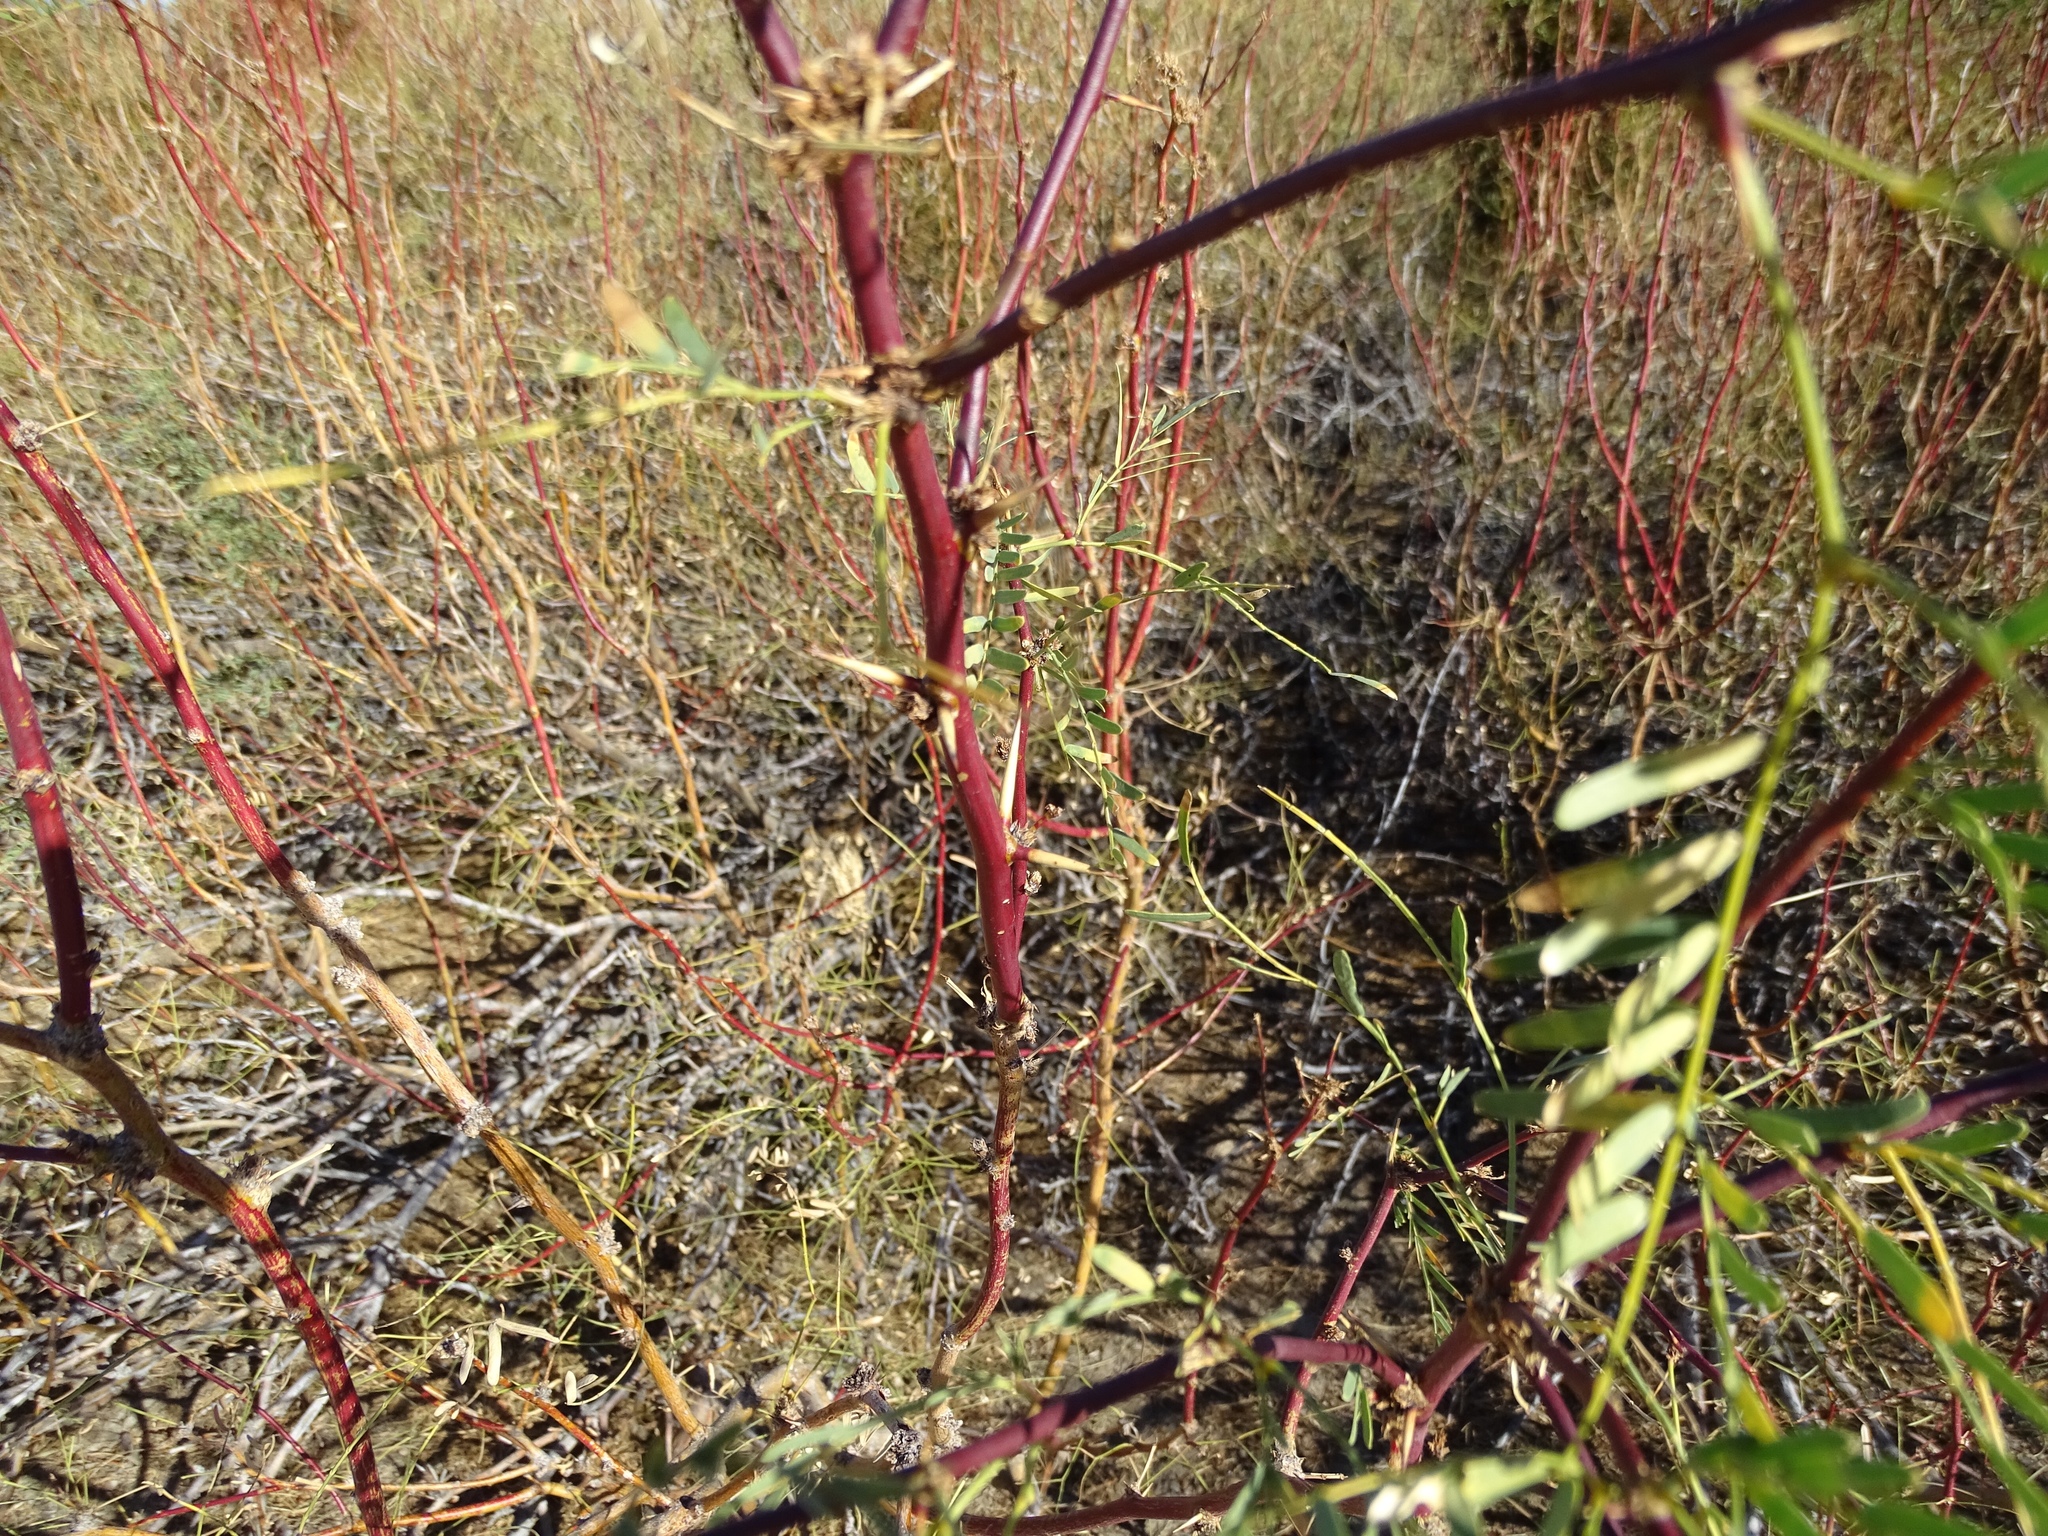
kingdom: Plantae
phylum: Tracheophyta
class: Magnoliopsida
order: Fabales
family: Fabaceae
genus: Prosopis
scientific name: Prosopis pubescens
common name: Screw-bean
